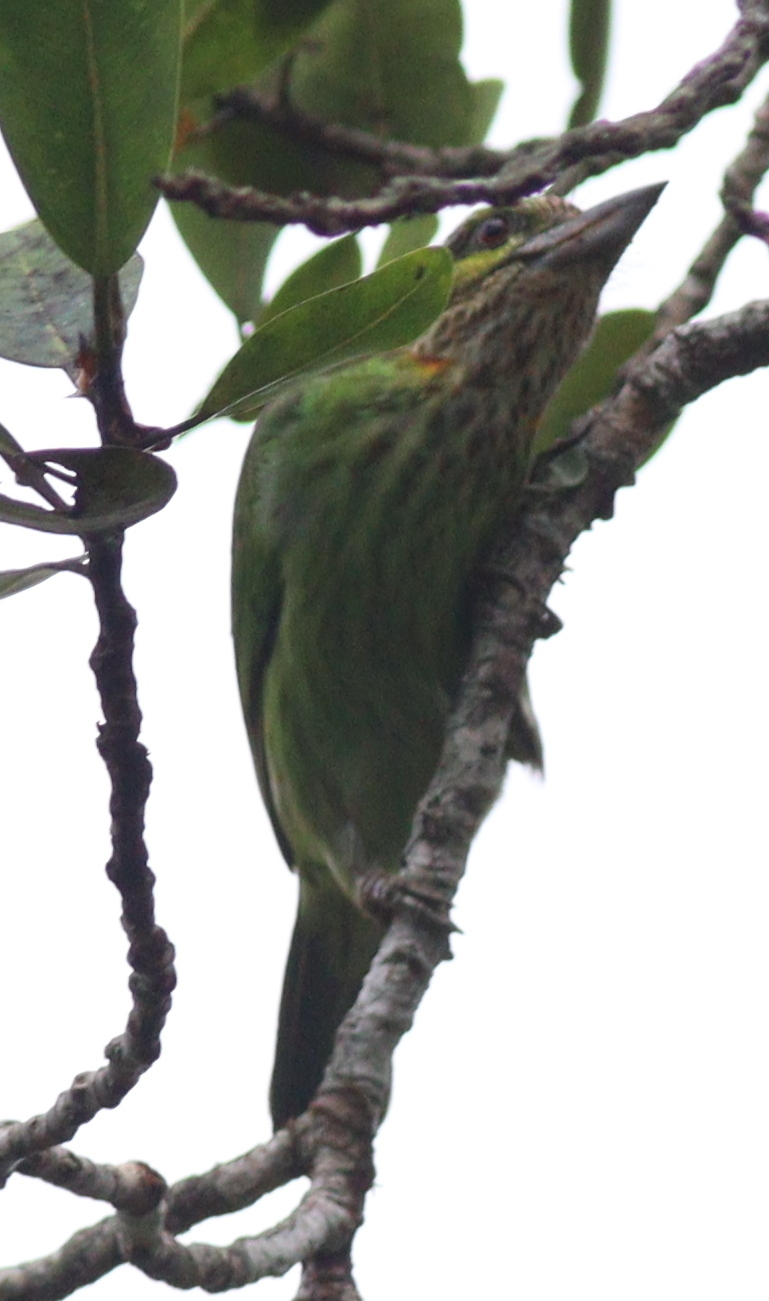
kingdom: Animalia
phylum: Chordata
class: Aves
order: Piciformes
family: Megalaimidae
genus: Psilopogon
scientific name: Psilopogon faiostrictus
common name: Green-eared barbet
